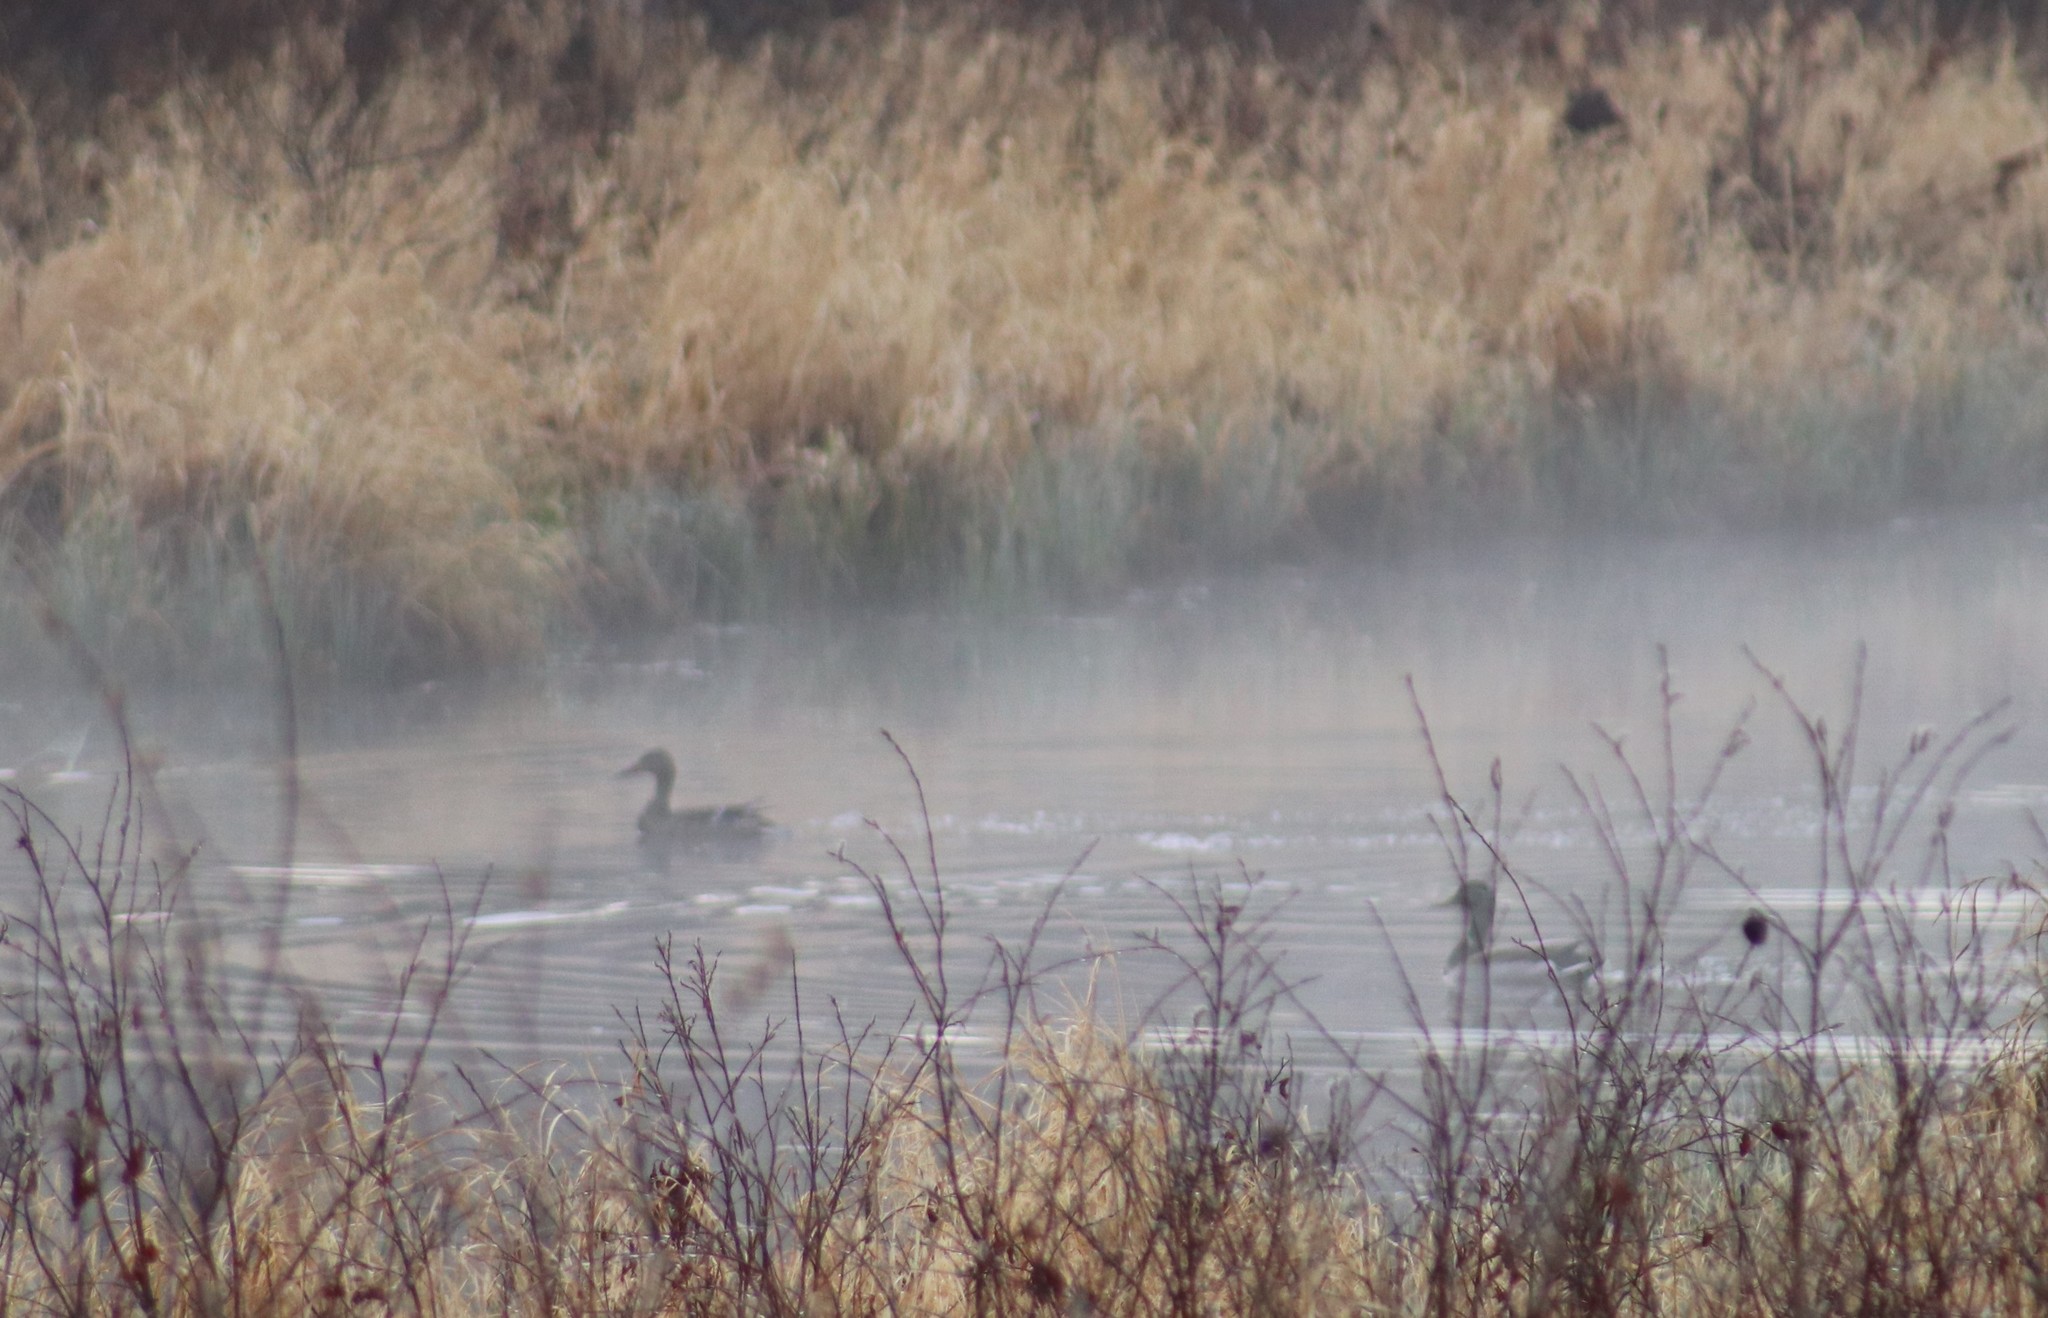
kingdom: Animalia
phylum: Chordata
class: Aves
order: Anseriformes
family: Anatidae
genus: Anas
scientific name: Anas platyrhynchos
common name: Mallard
